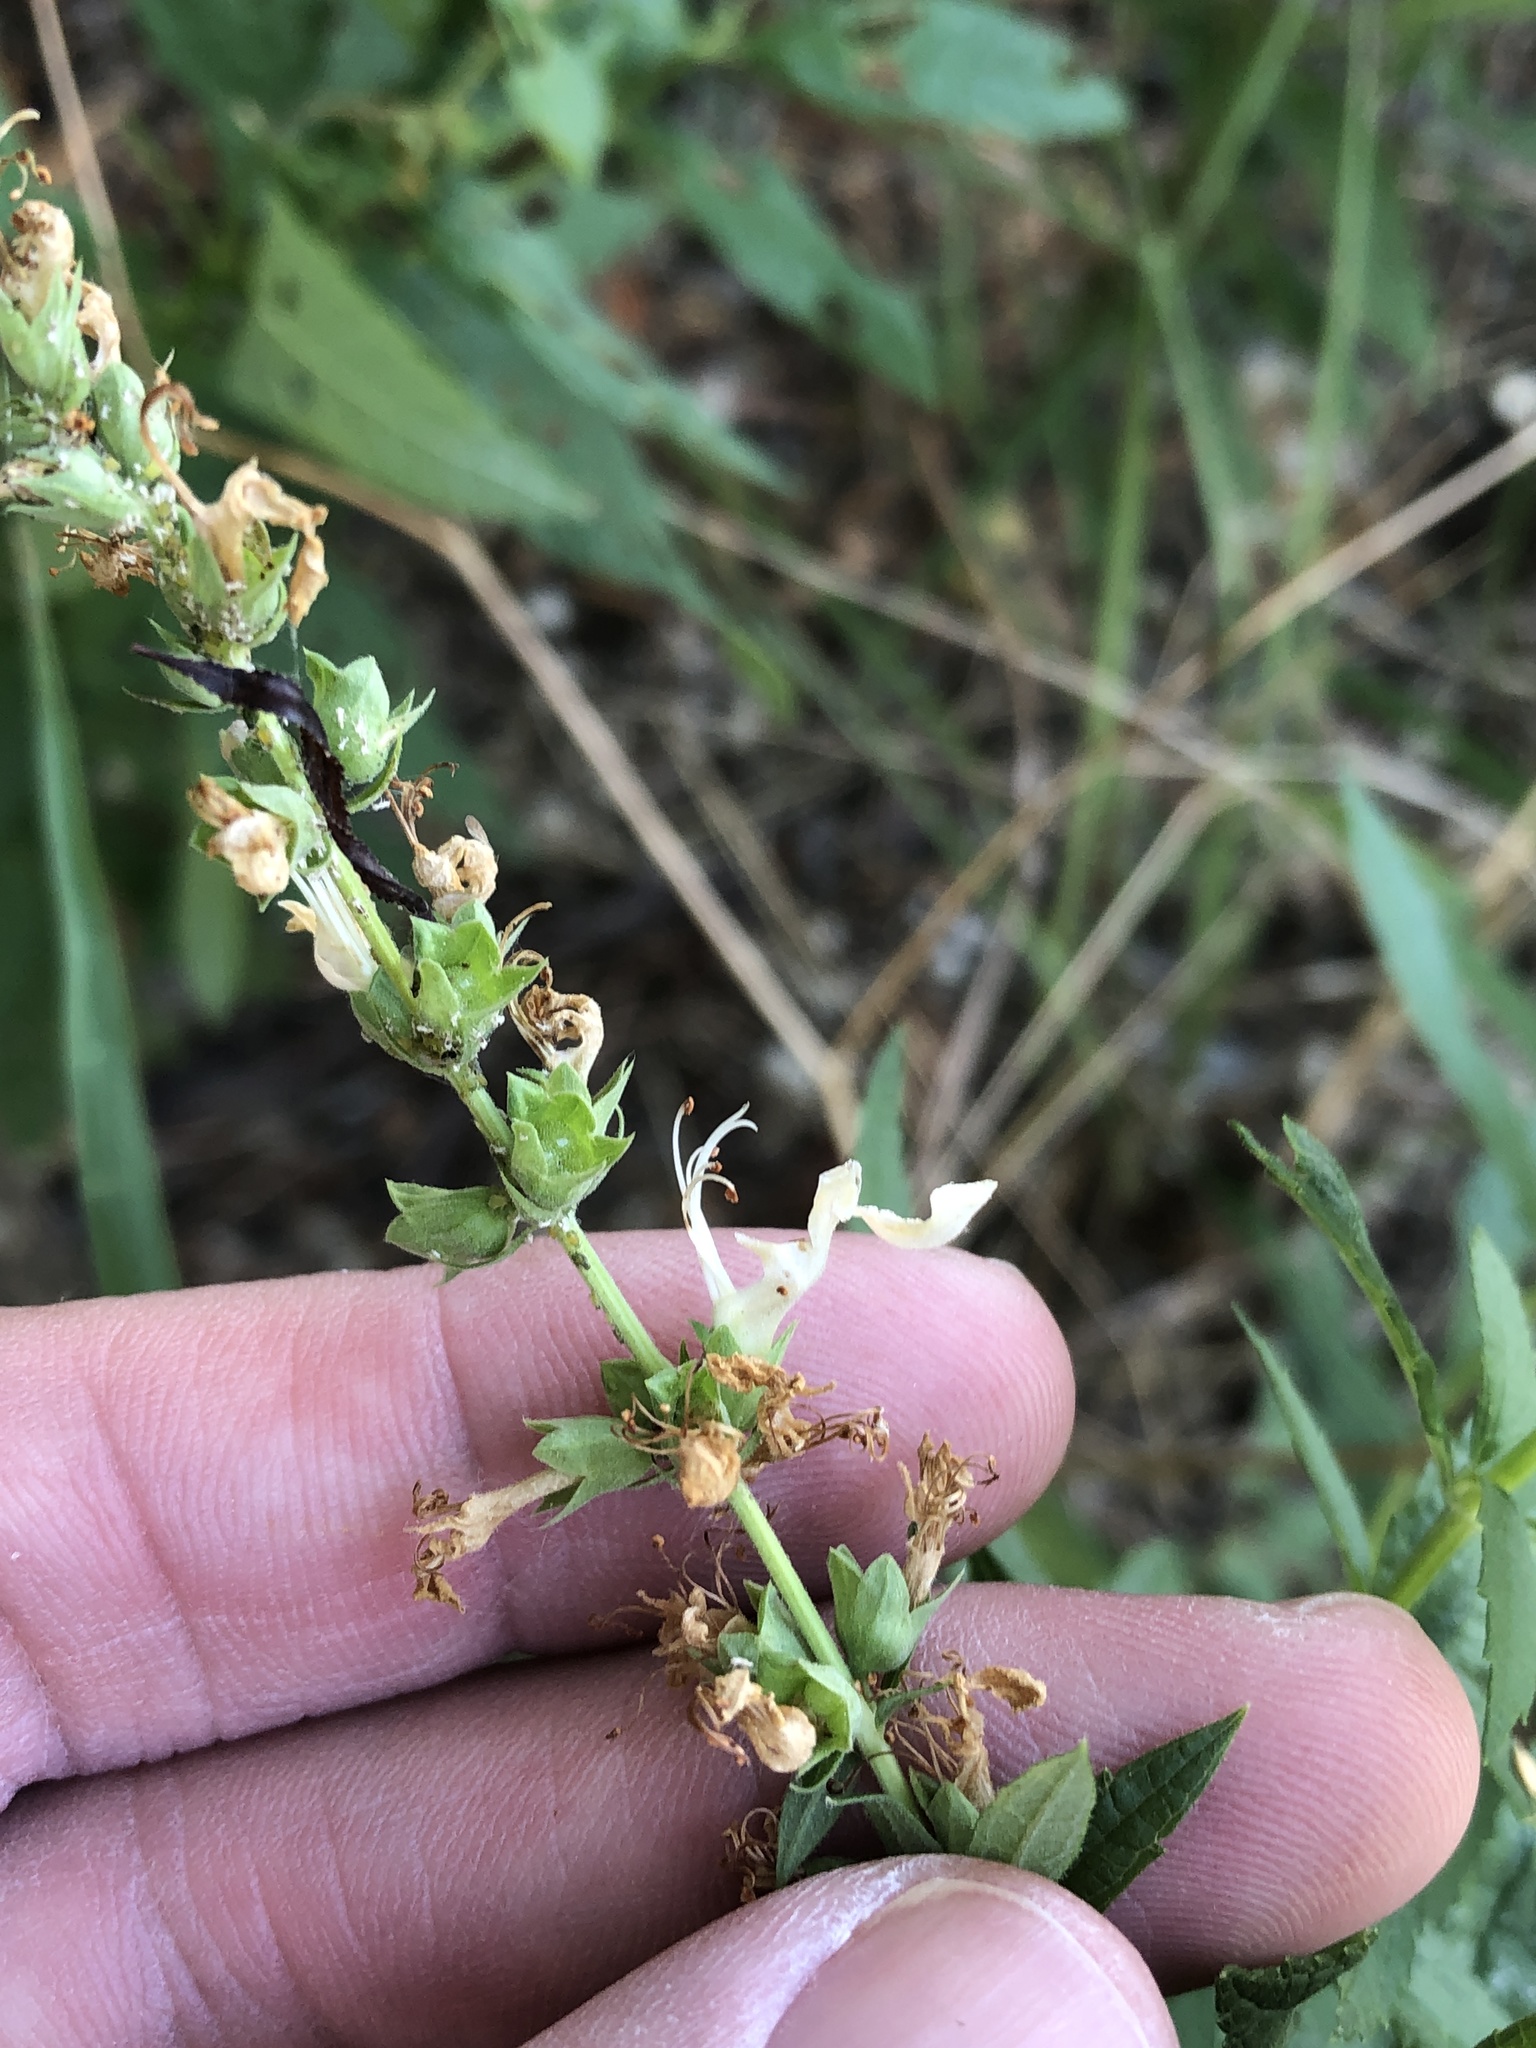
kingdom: Plantae
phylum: Tracheophyta
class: Magnoliopsida
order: Lamiales
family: Lamiaceae
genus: Teucrium
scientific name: Teucrium canadense
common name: American germander
